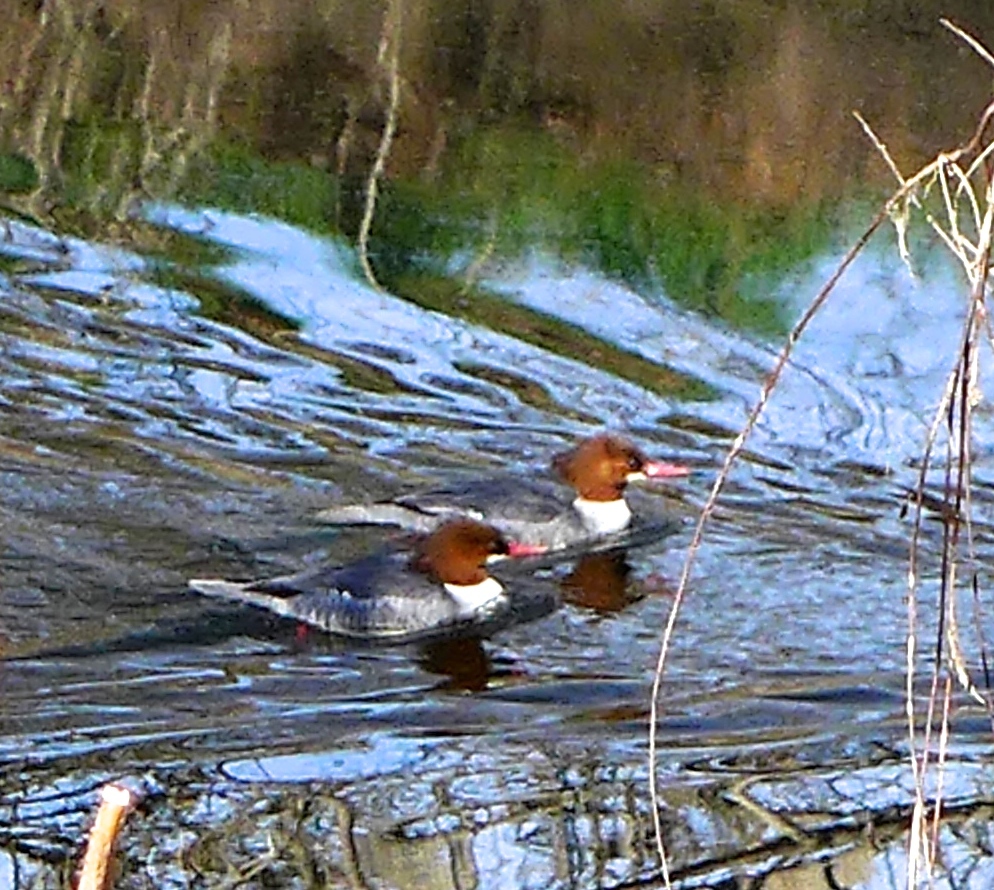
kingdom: Animalia
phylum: Chordata
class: Aves
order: Anseriformes
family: Anatidae
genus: Mergus
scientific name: Mergus merganser
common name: Common merganser
